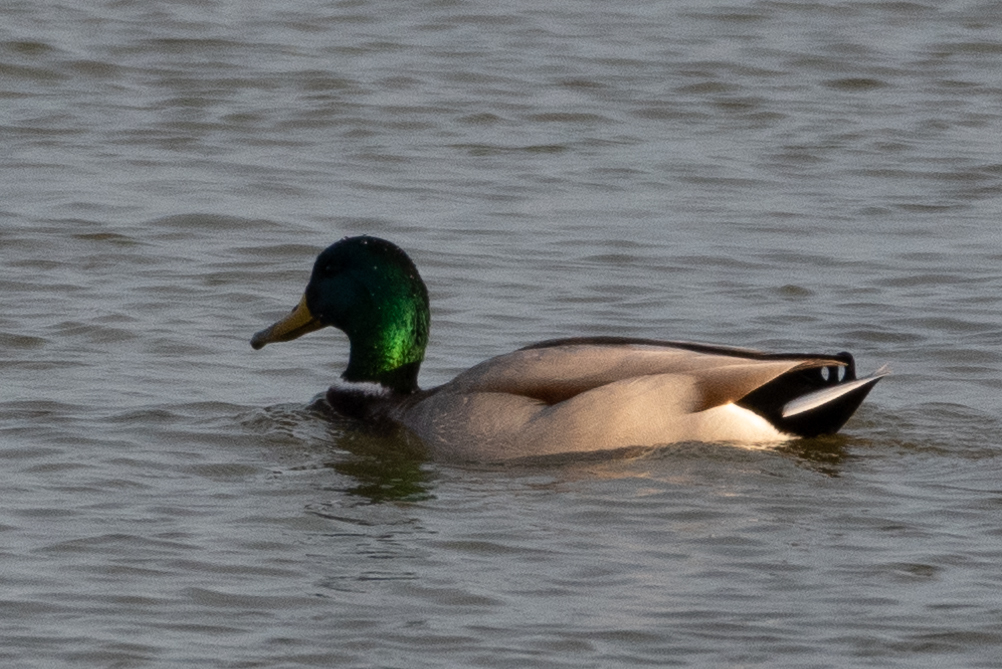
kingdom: Animalia
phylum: Chordata
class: Aves
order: Anseriformes
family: Anatidae
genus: Anas
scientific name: Anas platyrhynchos
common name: Mallard
